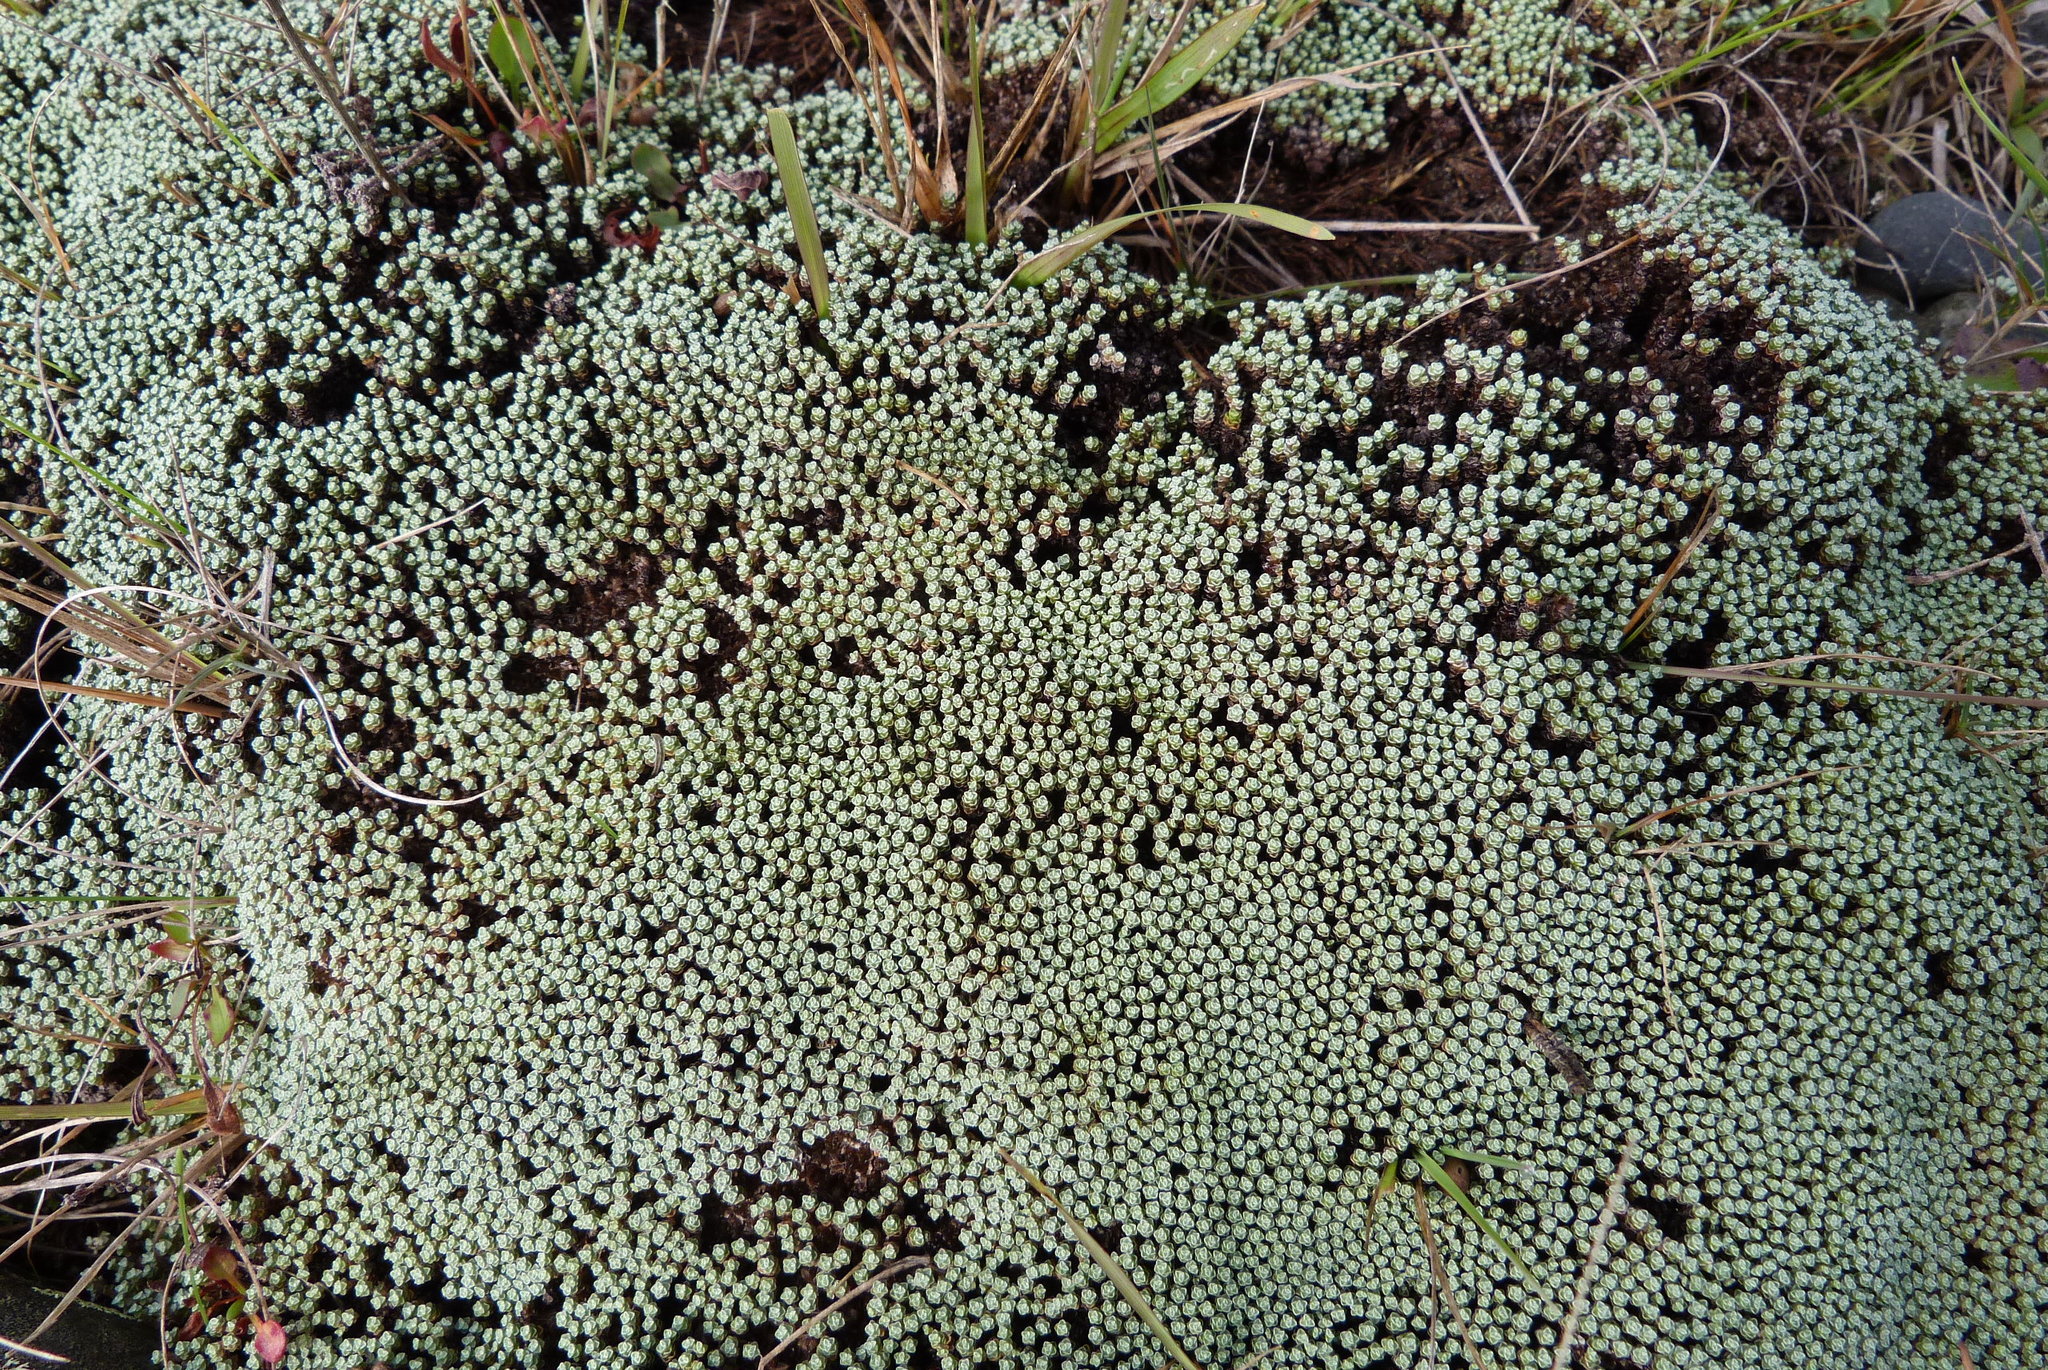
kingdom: Plantae
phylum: Tracheophyta
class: Magnoliopsida
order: Asterales
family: Asteraceae
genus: Raoulia
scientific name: Raoulia australis
